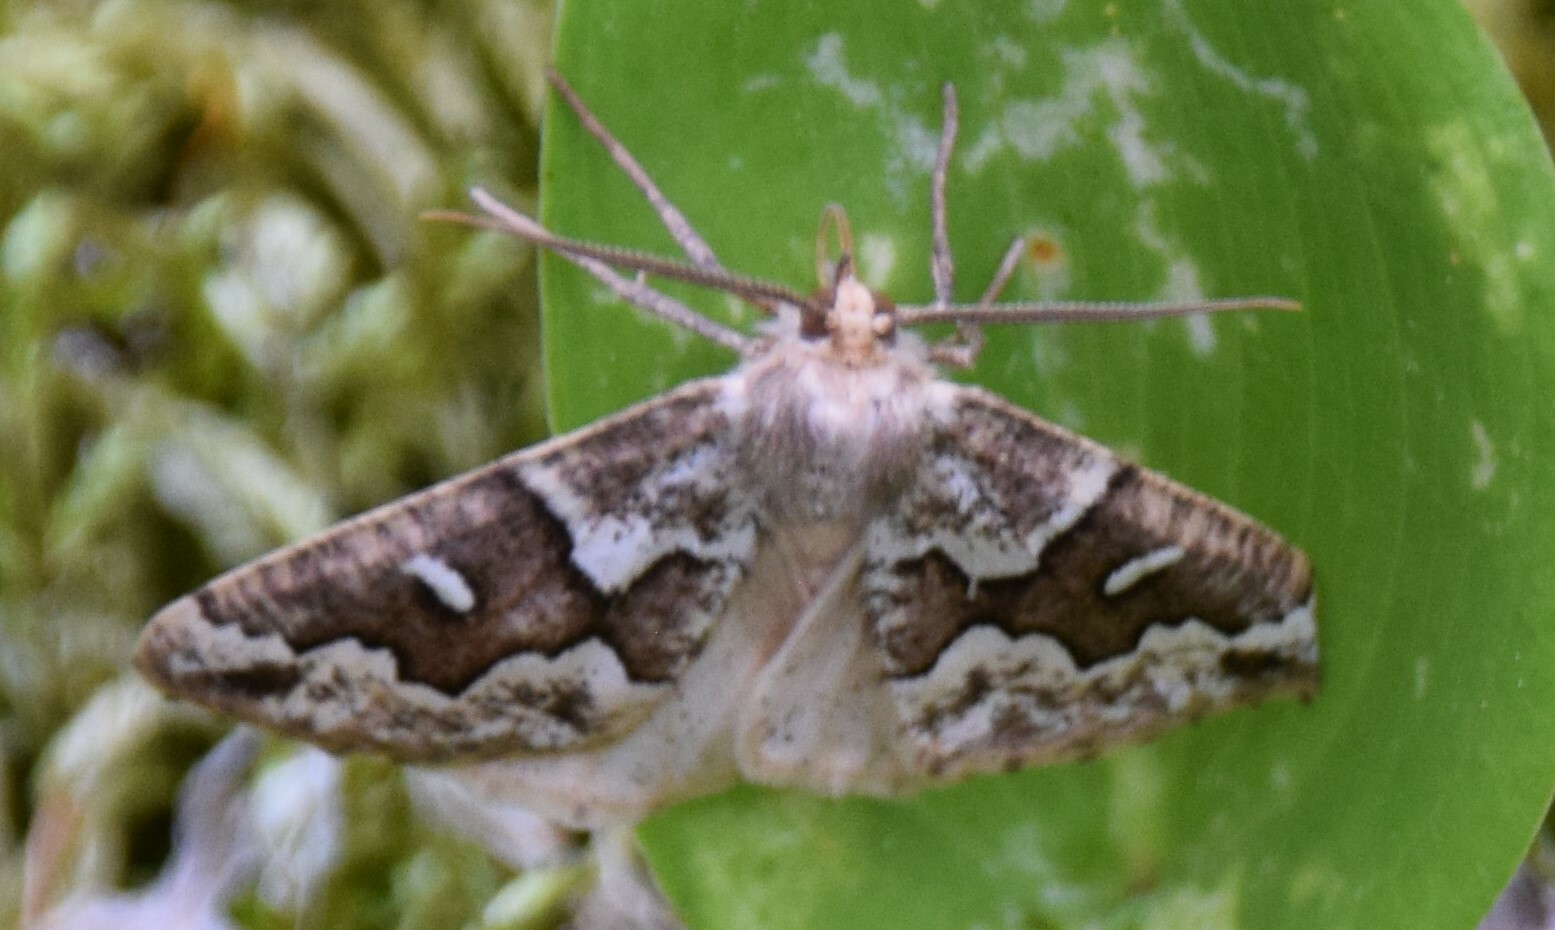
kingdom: Animalia
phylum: Arthropoda
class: Insecta
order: Lepidoptera
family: Geometridae
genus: Caripeta
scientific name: Caripeta divisata
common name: Gray spruce looper
